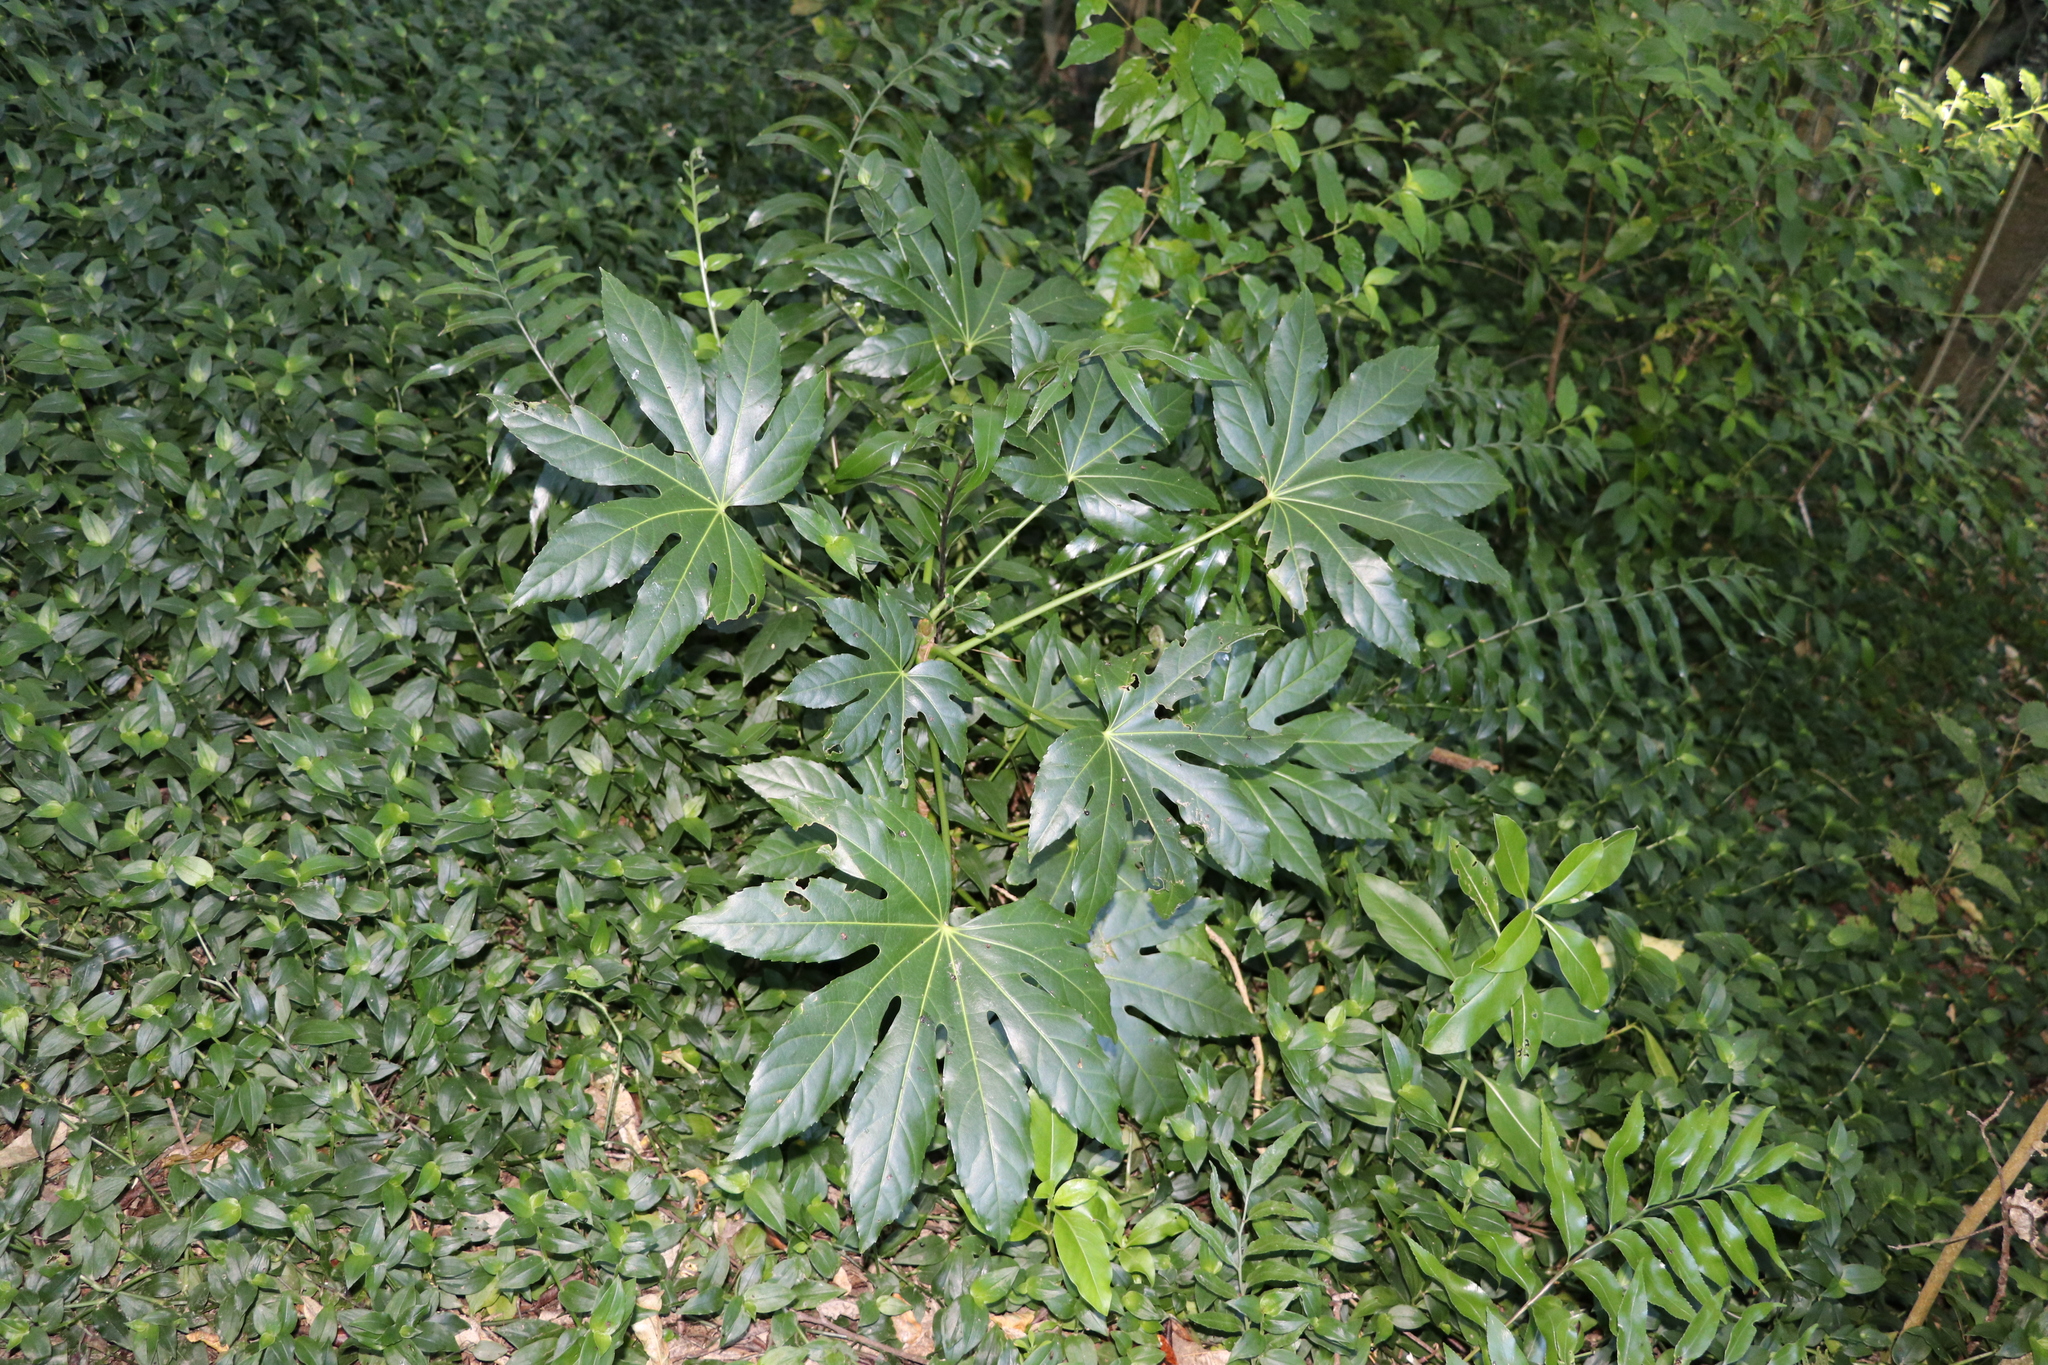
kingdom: Plantae
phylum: Tracheophyta
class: Magnoliopsida
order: Apiales
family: Araliaceae
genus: Fatsia
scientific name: Fatsia japonica
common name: Fatsia
